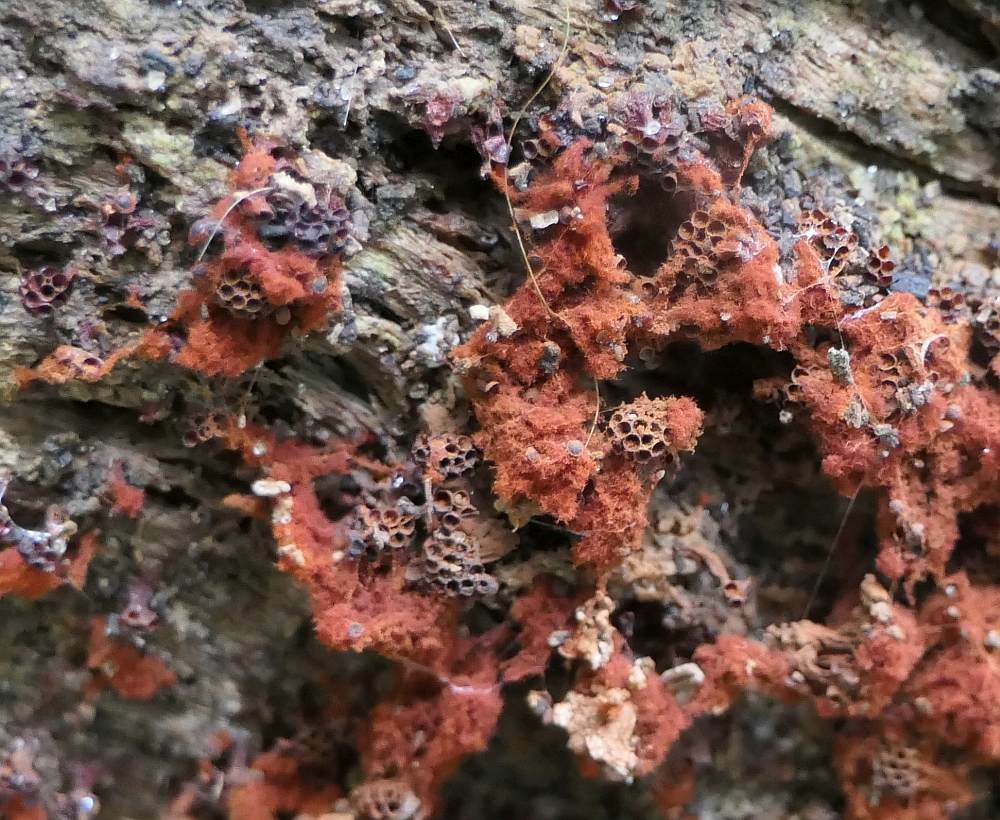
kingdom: Protozoa
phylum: Mycetozoa
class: Myxomycetes
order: Trichiales
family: Trichiaceae
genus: Metatrichia
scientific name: Metatrichia vesparia
